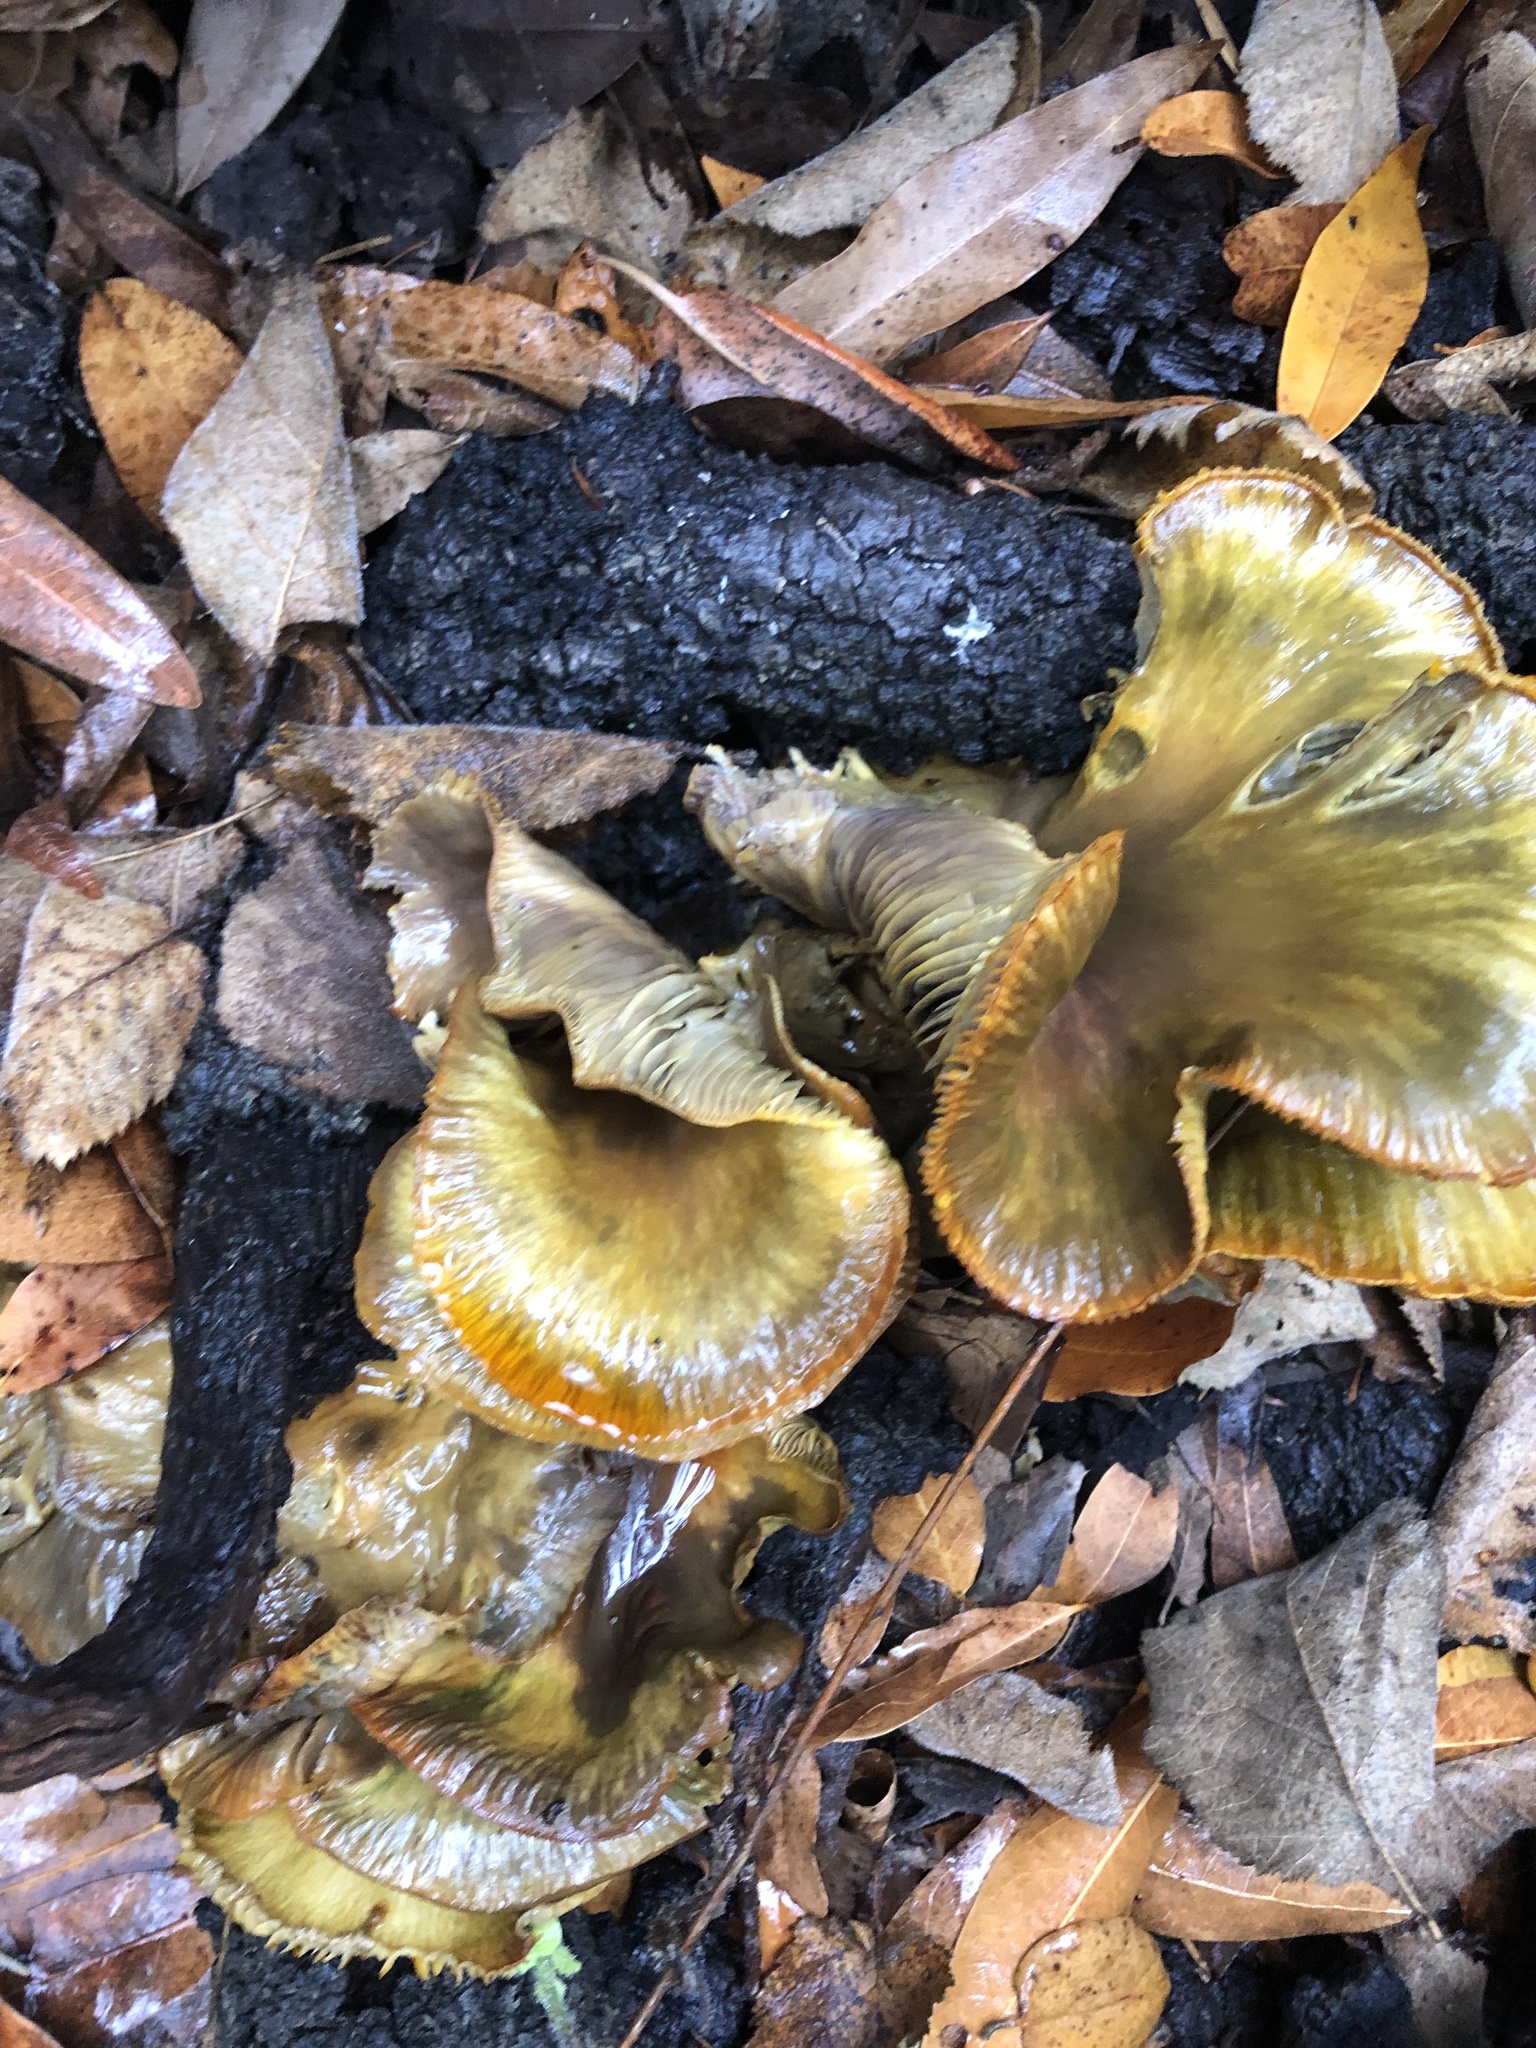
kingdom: Fungi
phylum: Basidiomycota
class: Agaricomycetes
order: Agaricales
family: Omphalotaceae
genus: Omphalotus
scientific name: Omphalotus olivascens
